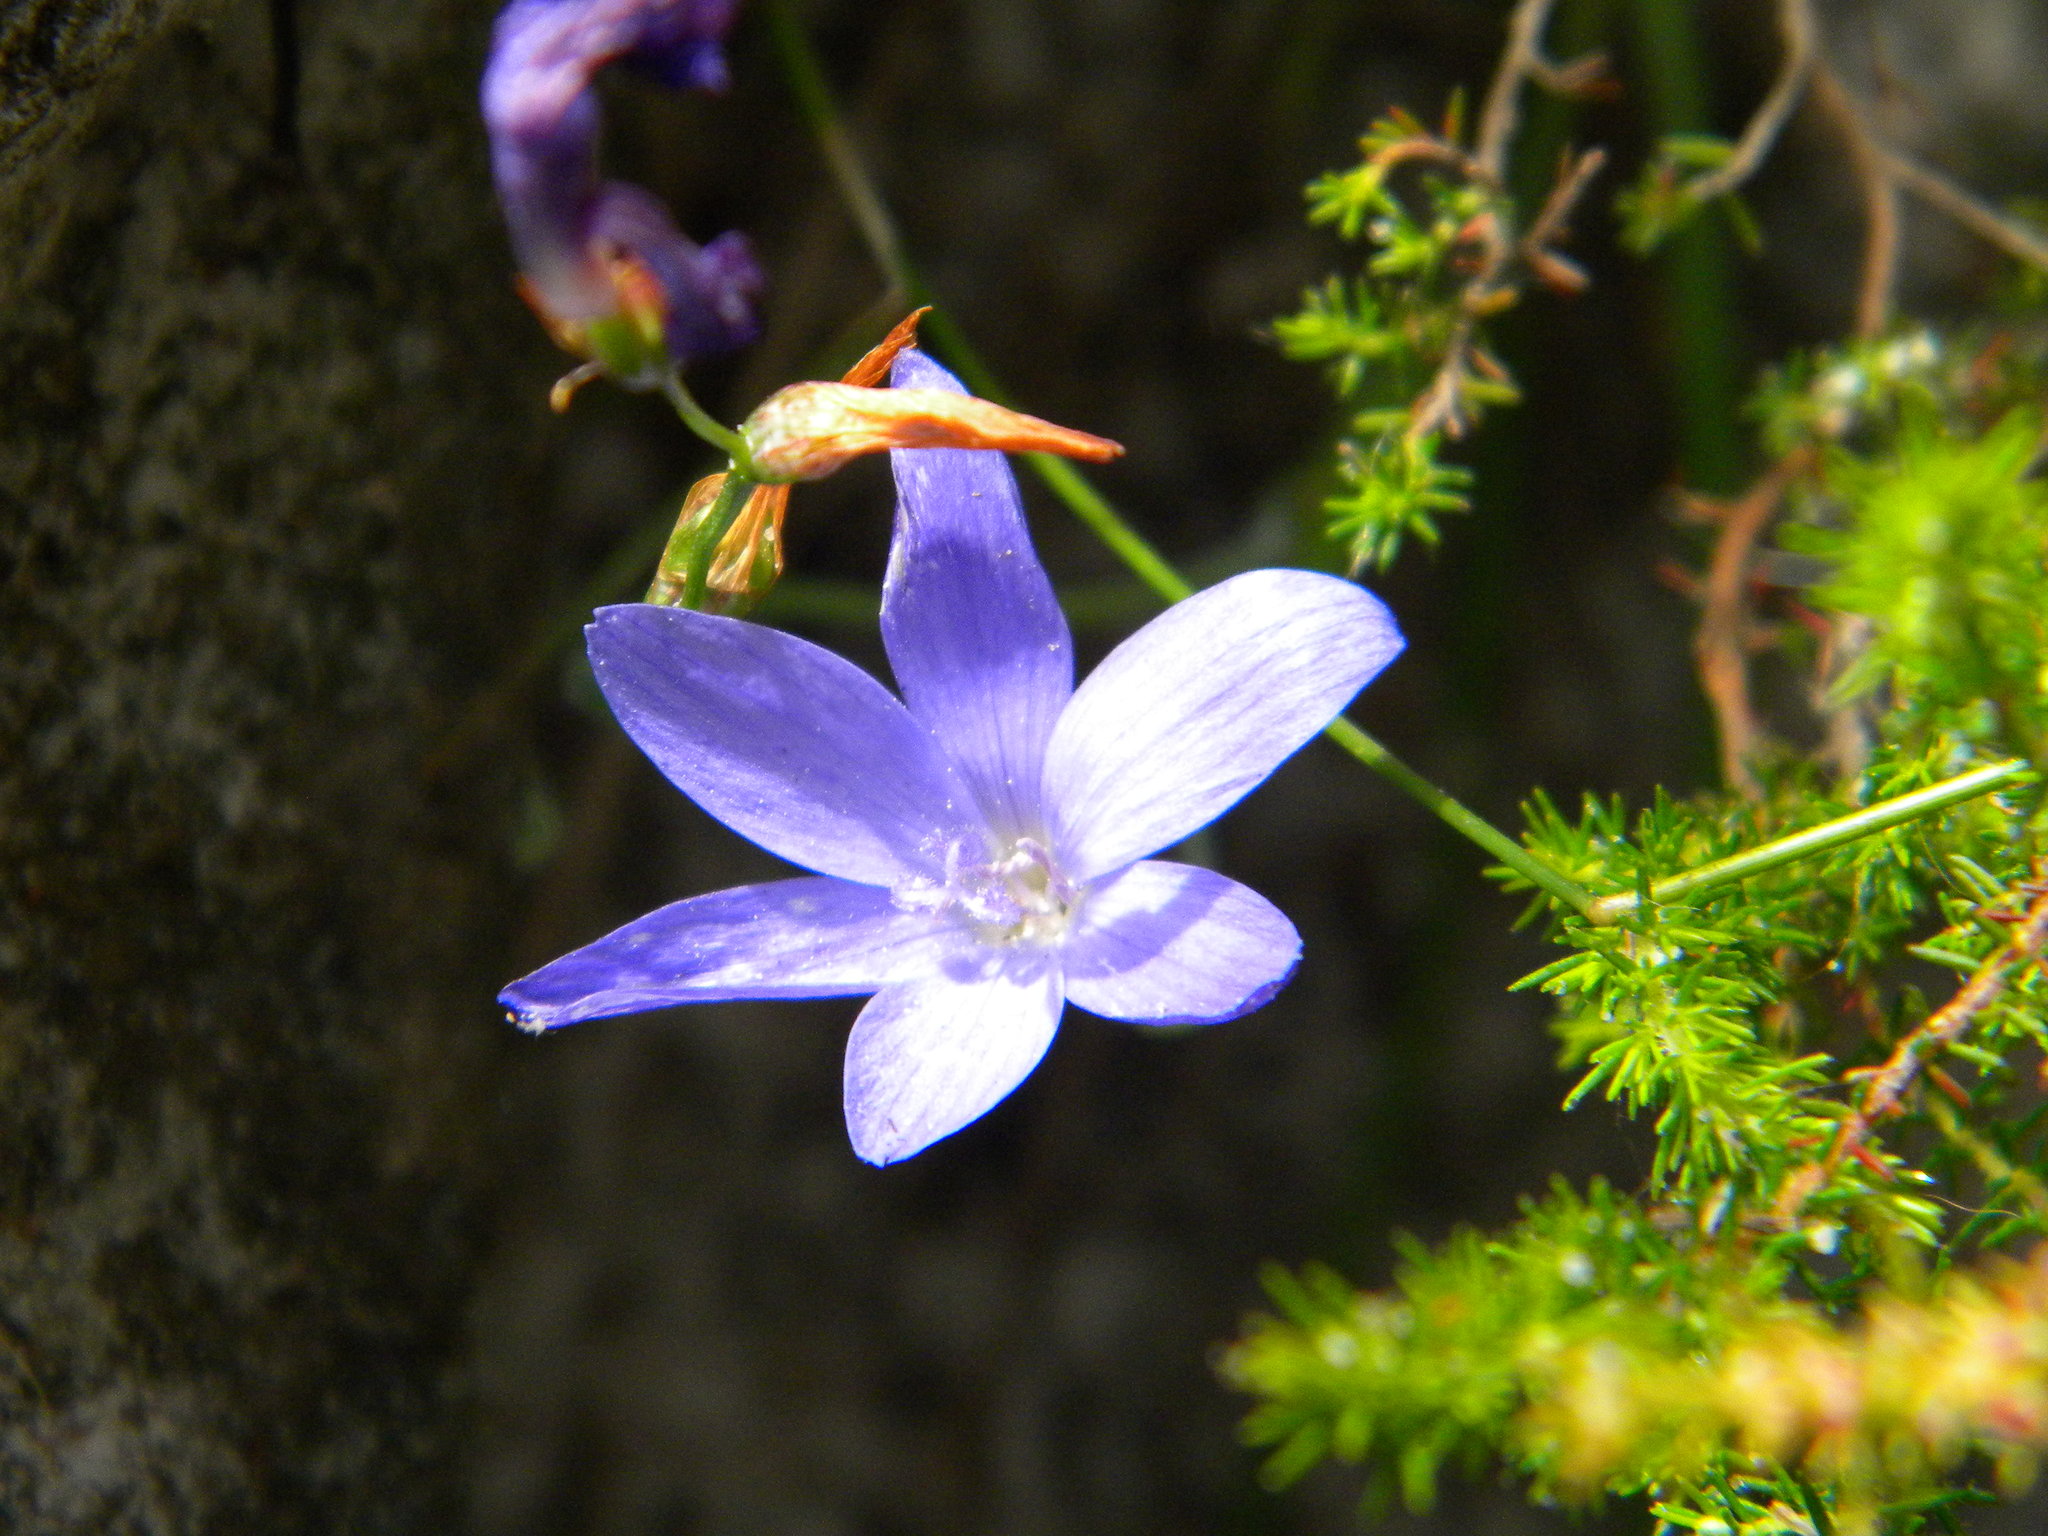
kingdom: Plantae
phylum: Tracheophyta
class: Liliopsida
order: Asparagales
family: Iridaceae
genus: Geissorhiza
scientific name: Geissorhiza aspera
